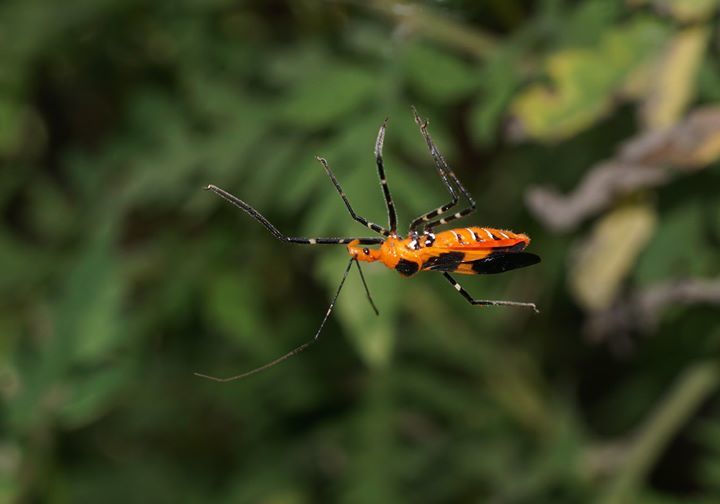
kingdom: Animalia
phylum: Arthropoda
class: Insecta
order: Hemiptera
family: Reduviidae
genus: Zelus
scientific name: Zelus longipes
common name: Milkweed assassin bug
